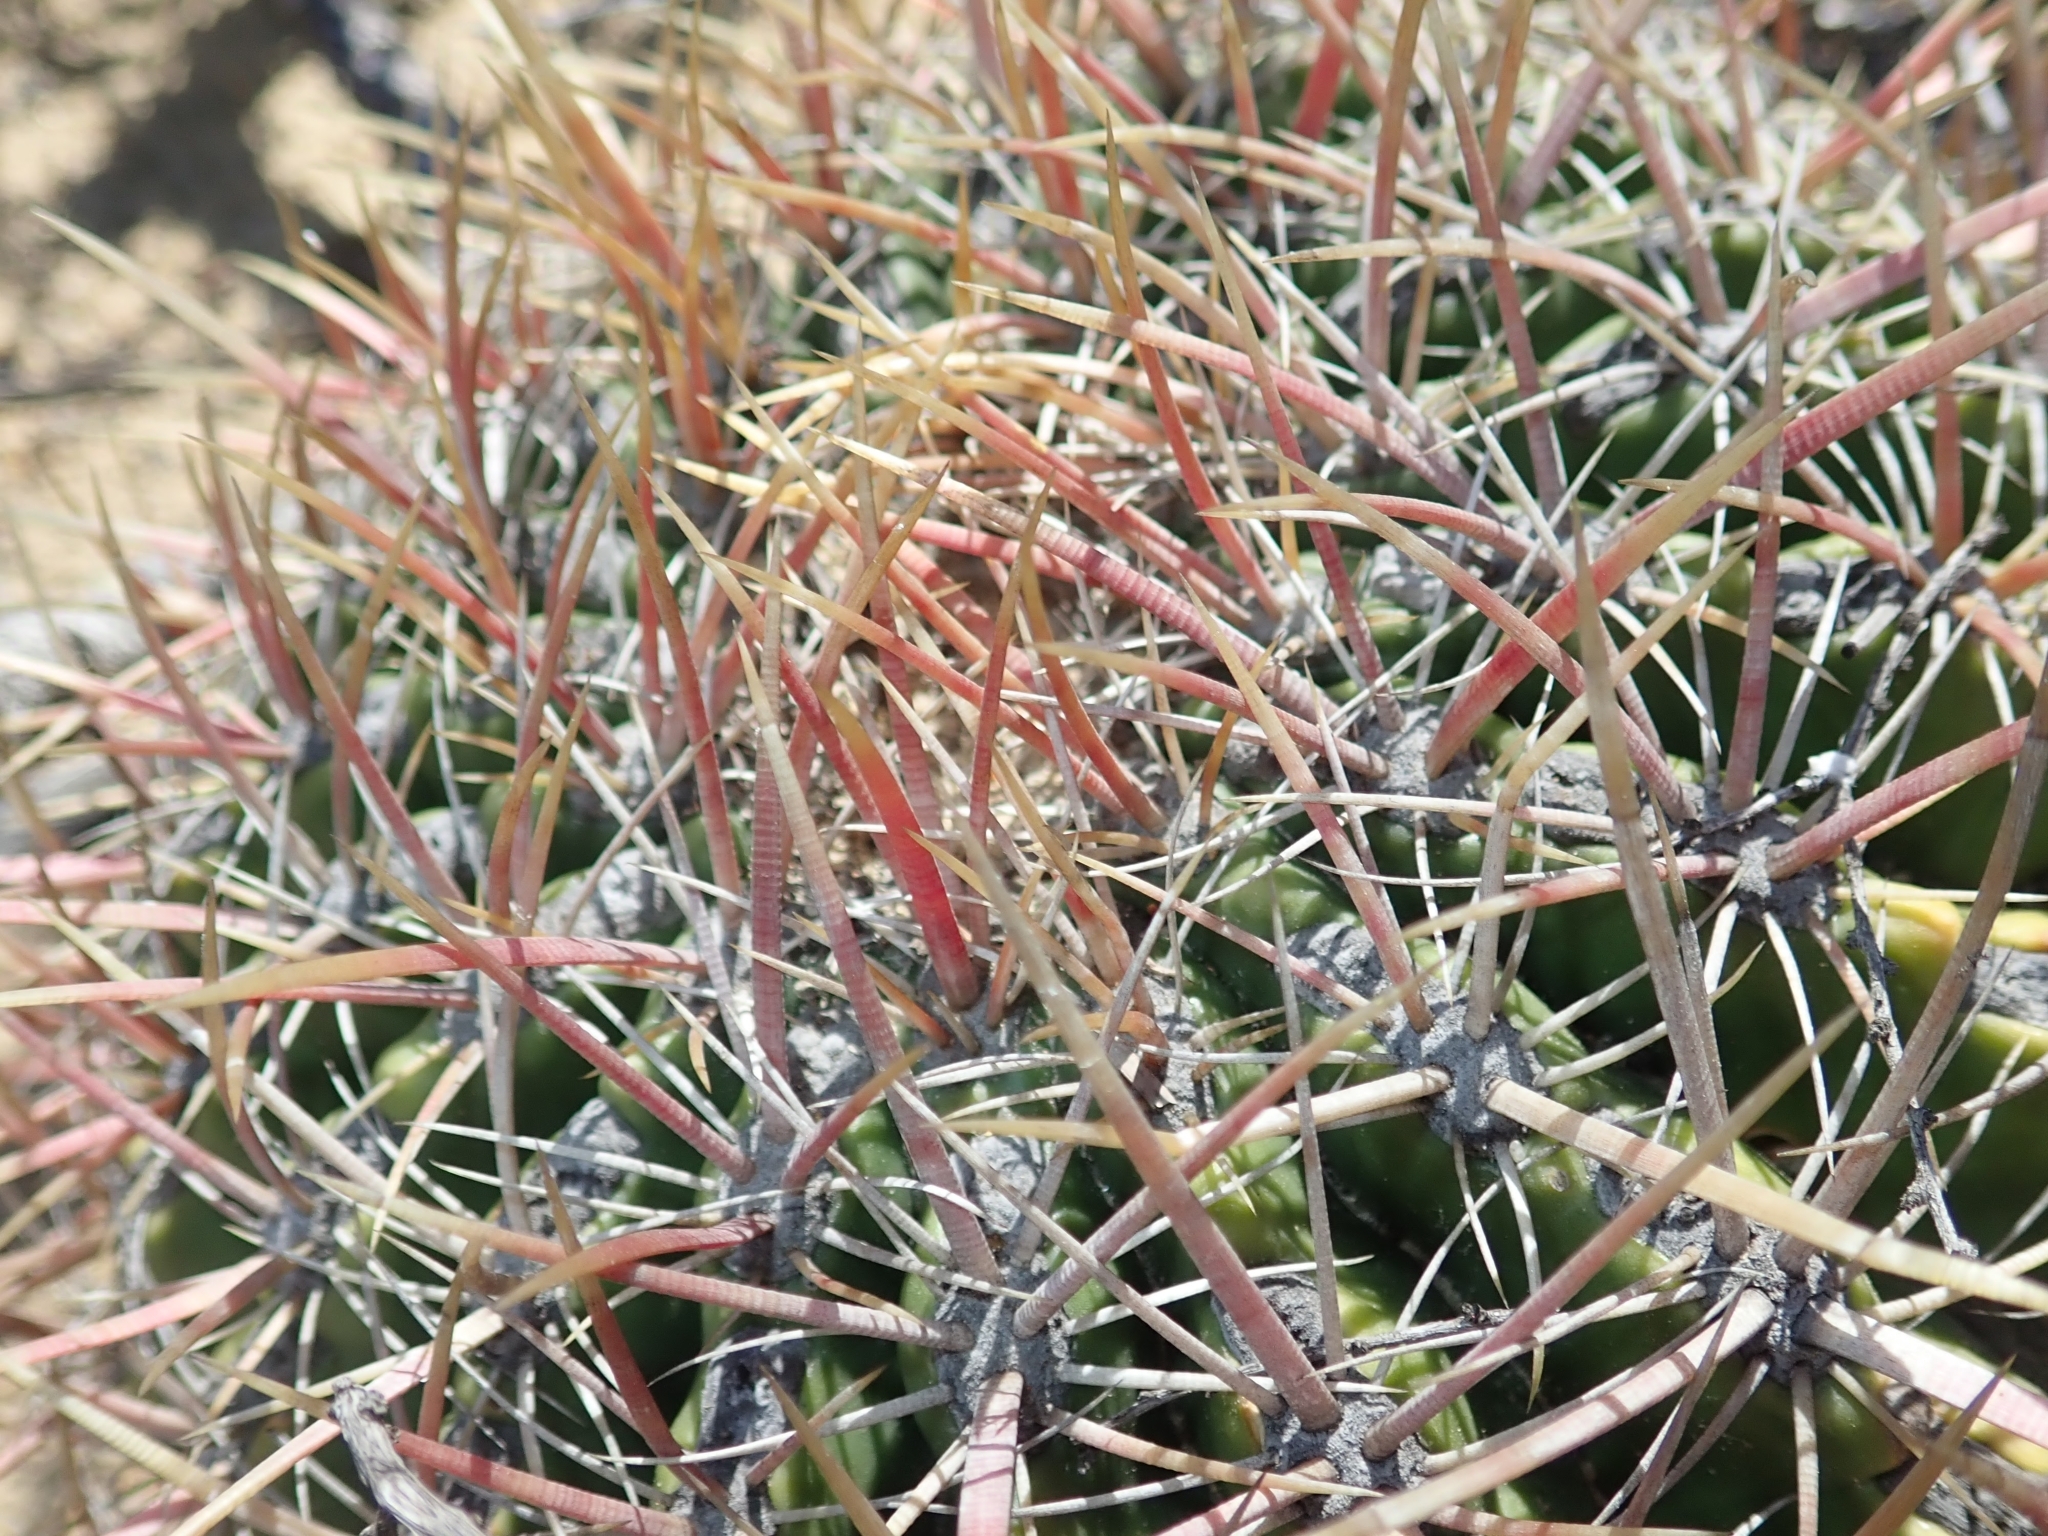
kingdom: Plantae
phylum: Tracheophyta
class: Magnoliopsida
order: Caryophyllales
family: Cactaceae
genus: Ferocactus
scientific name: Ferocactus viridescens
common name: San diego barrel cactus
